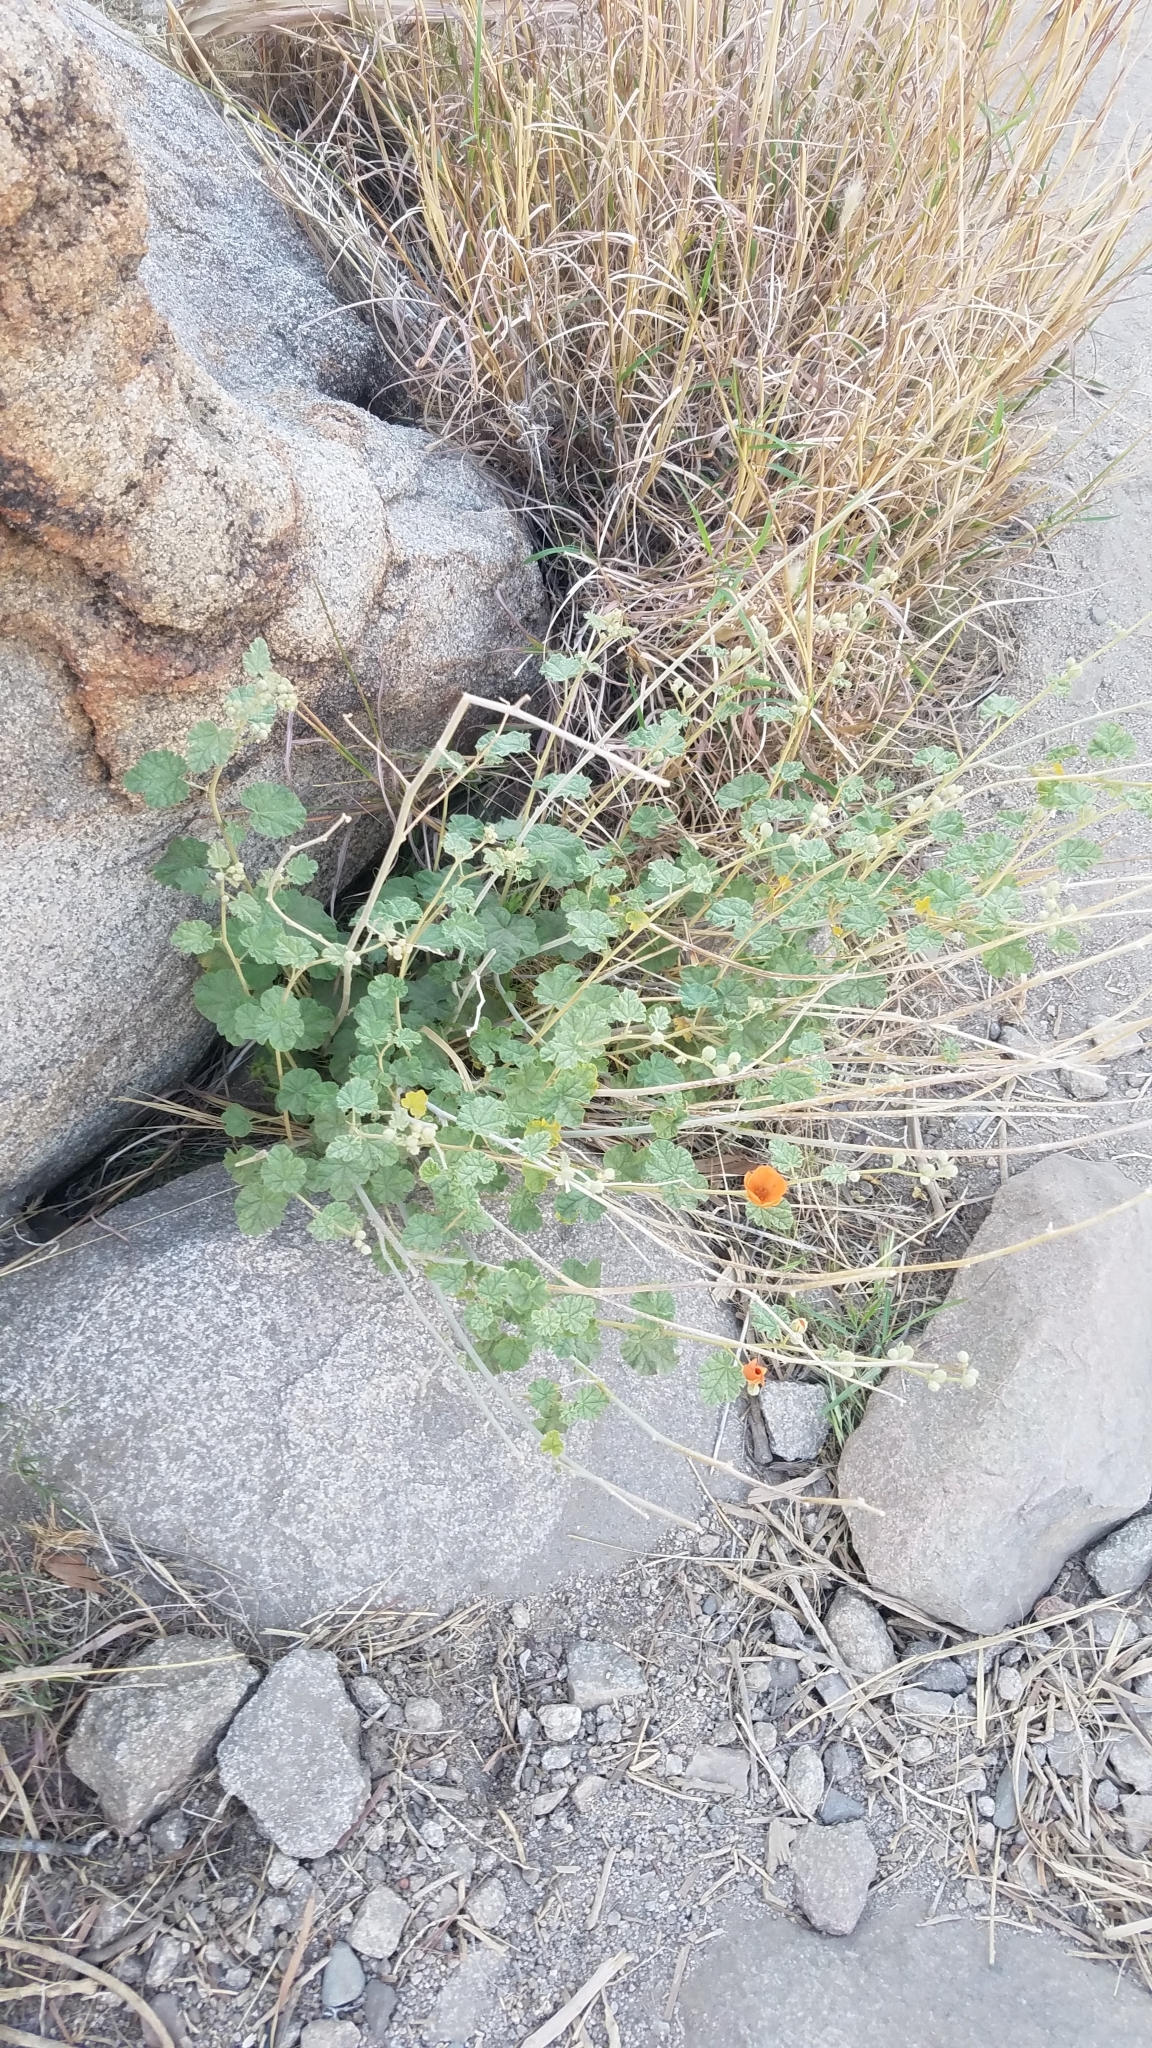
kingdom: Plantae
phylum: Tracheophyta
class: Magnoliopsida
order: Malvales
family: Malvaceae
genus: Sphaeralcea
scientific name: Sphaeralcea ambigua
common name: Apricot globe-mallow
